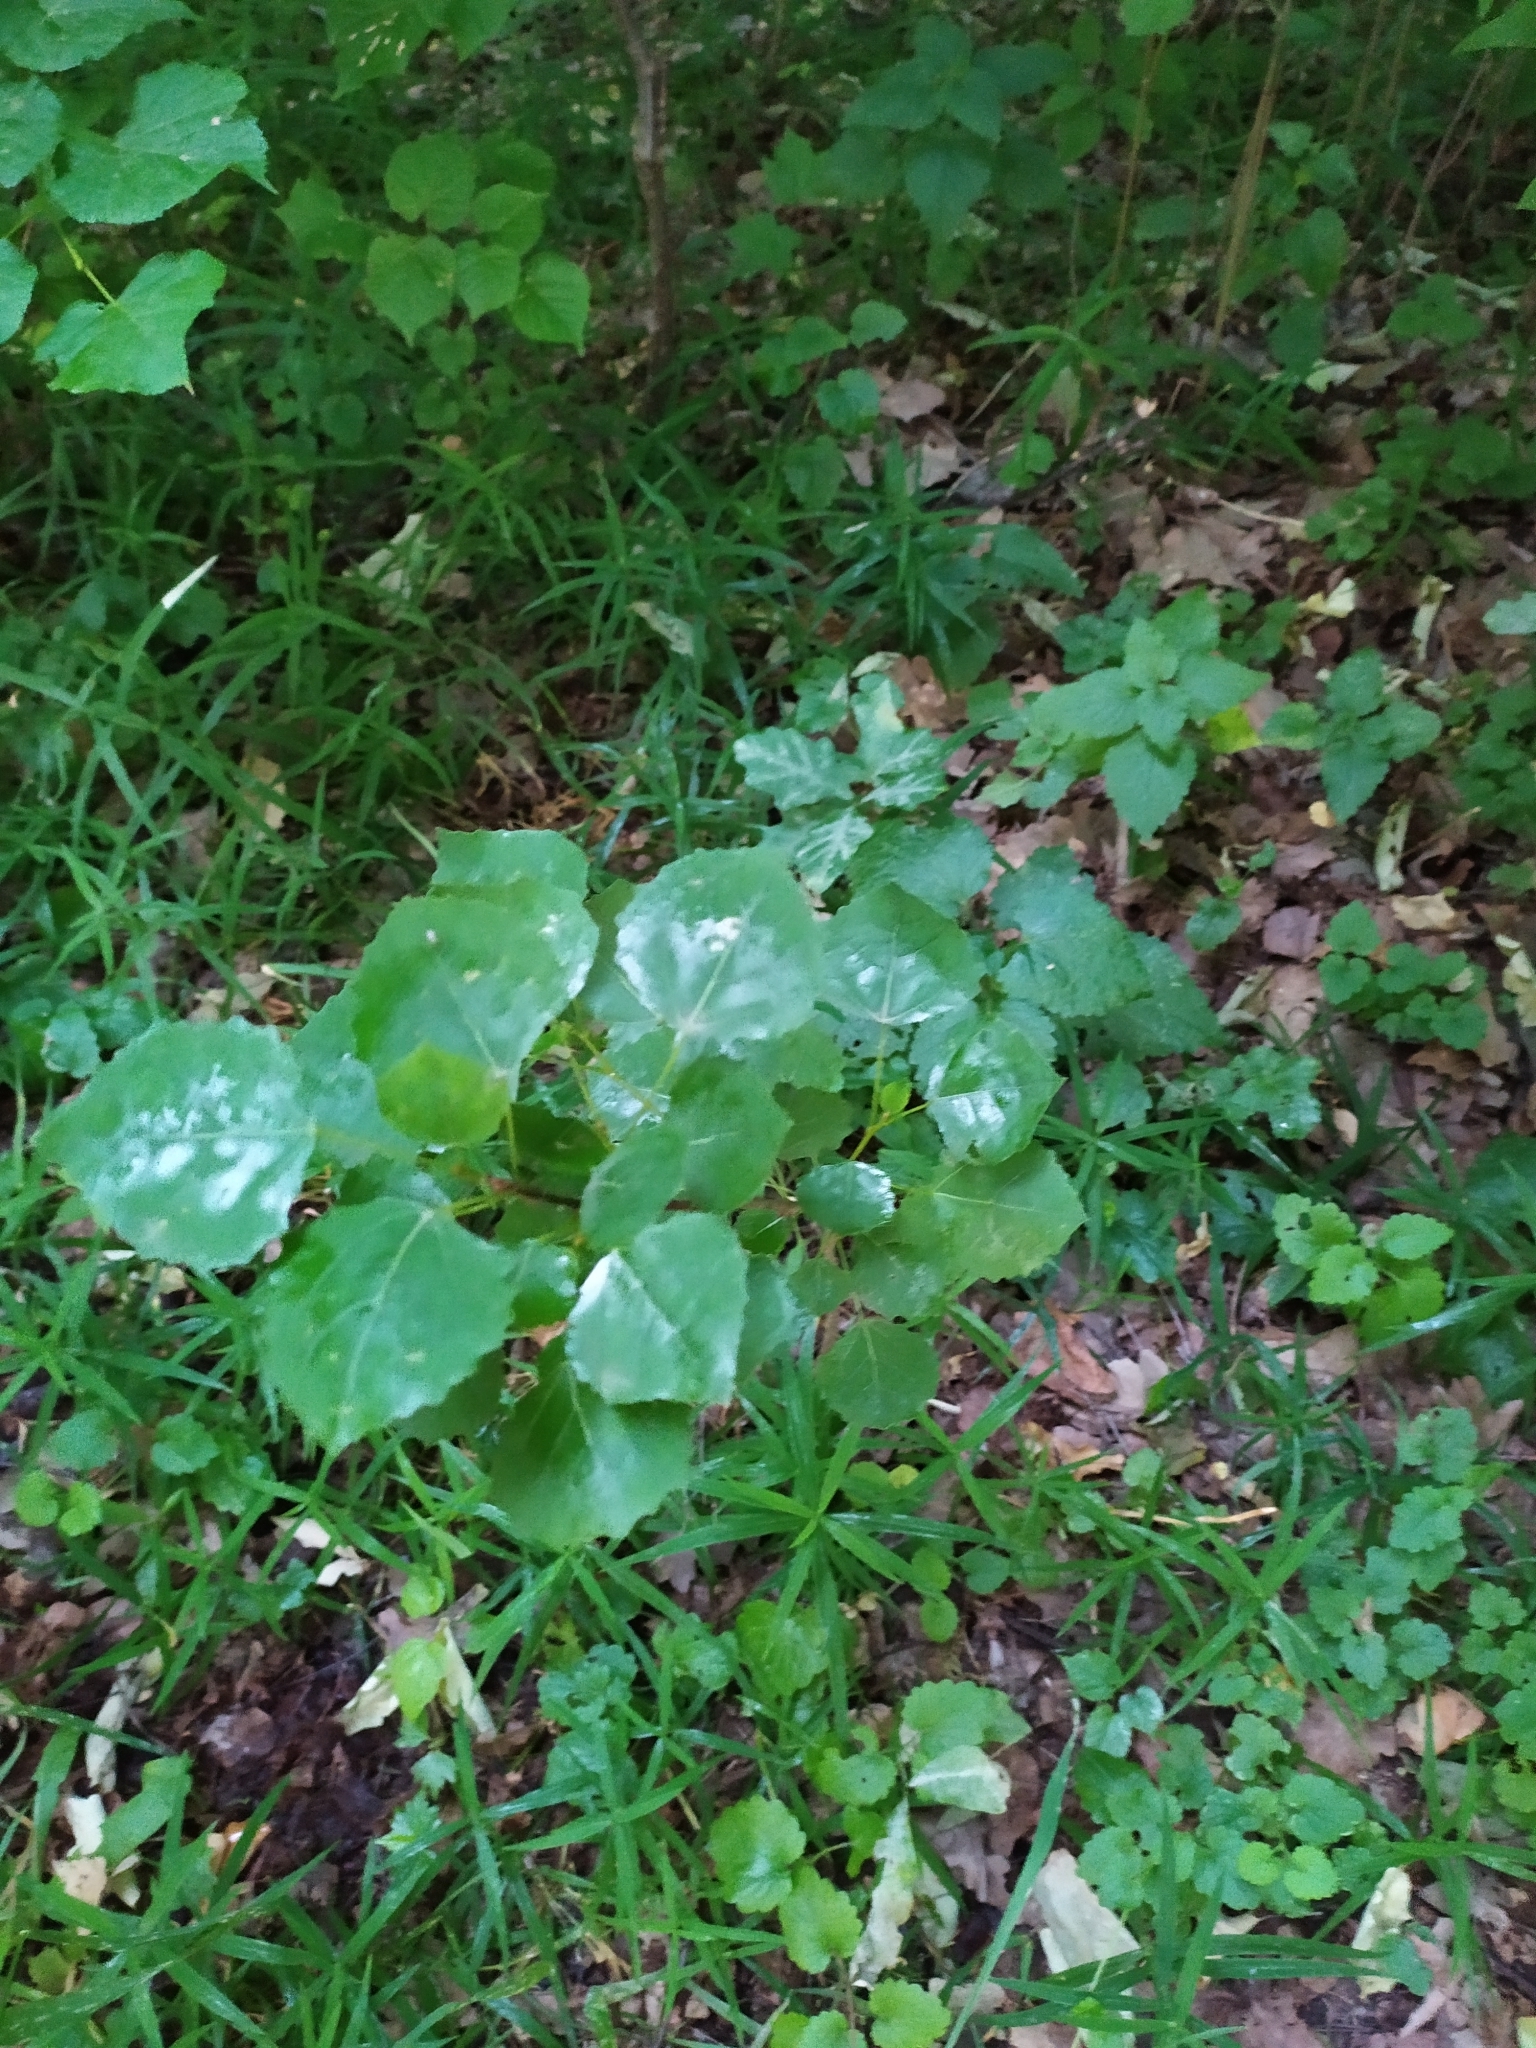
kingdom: Plantae
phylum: Tracheophyta
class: Magnoliopsida
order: Malpighiales
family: Salicaceae
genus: Populus
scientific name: Populus tremula
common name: European aspen
